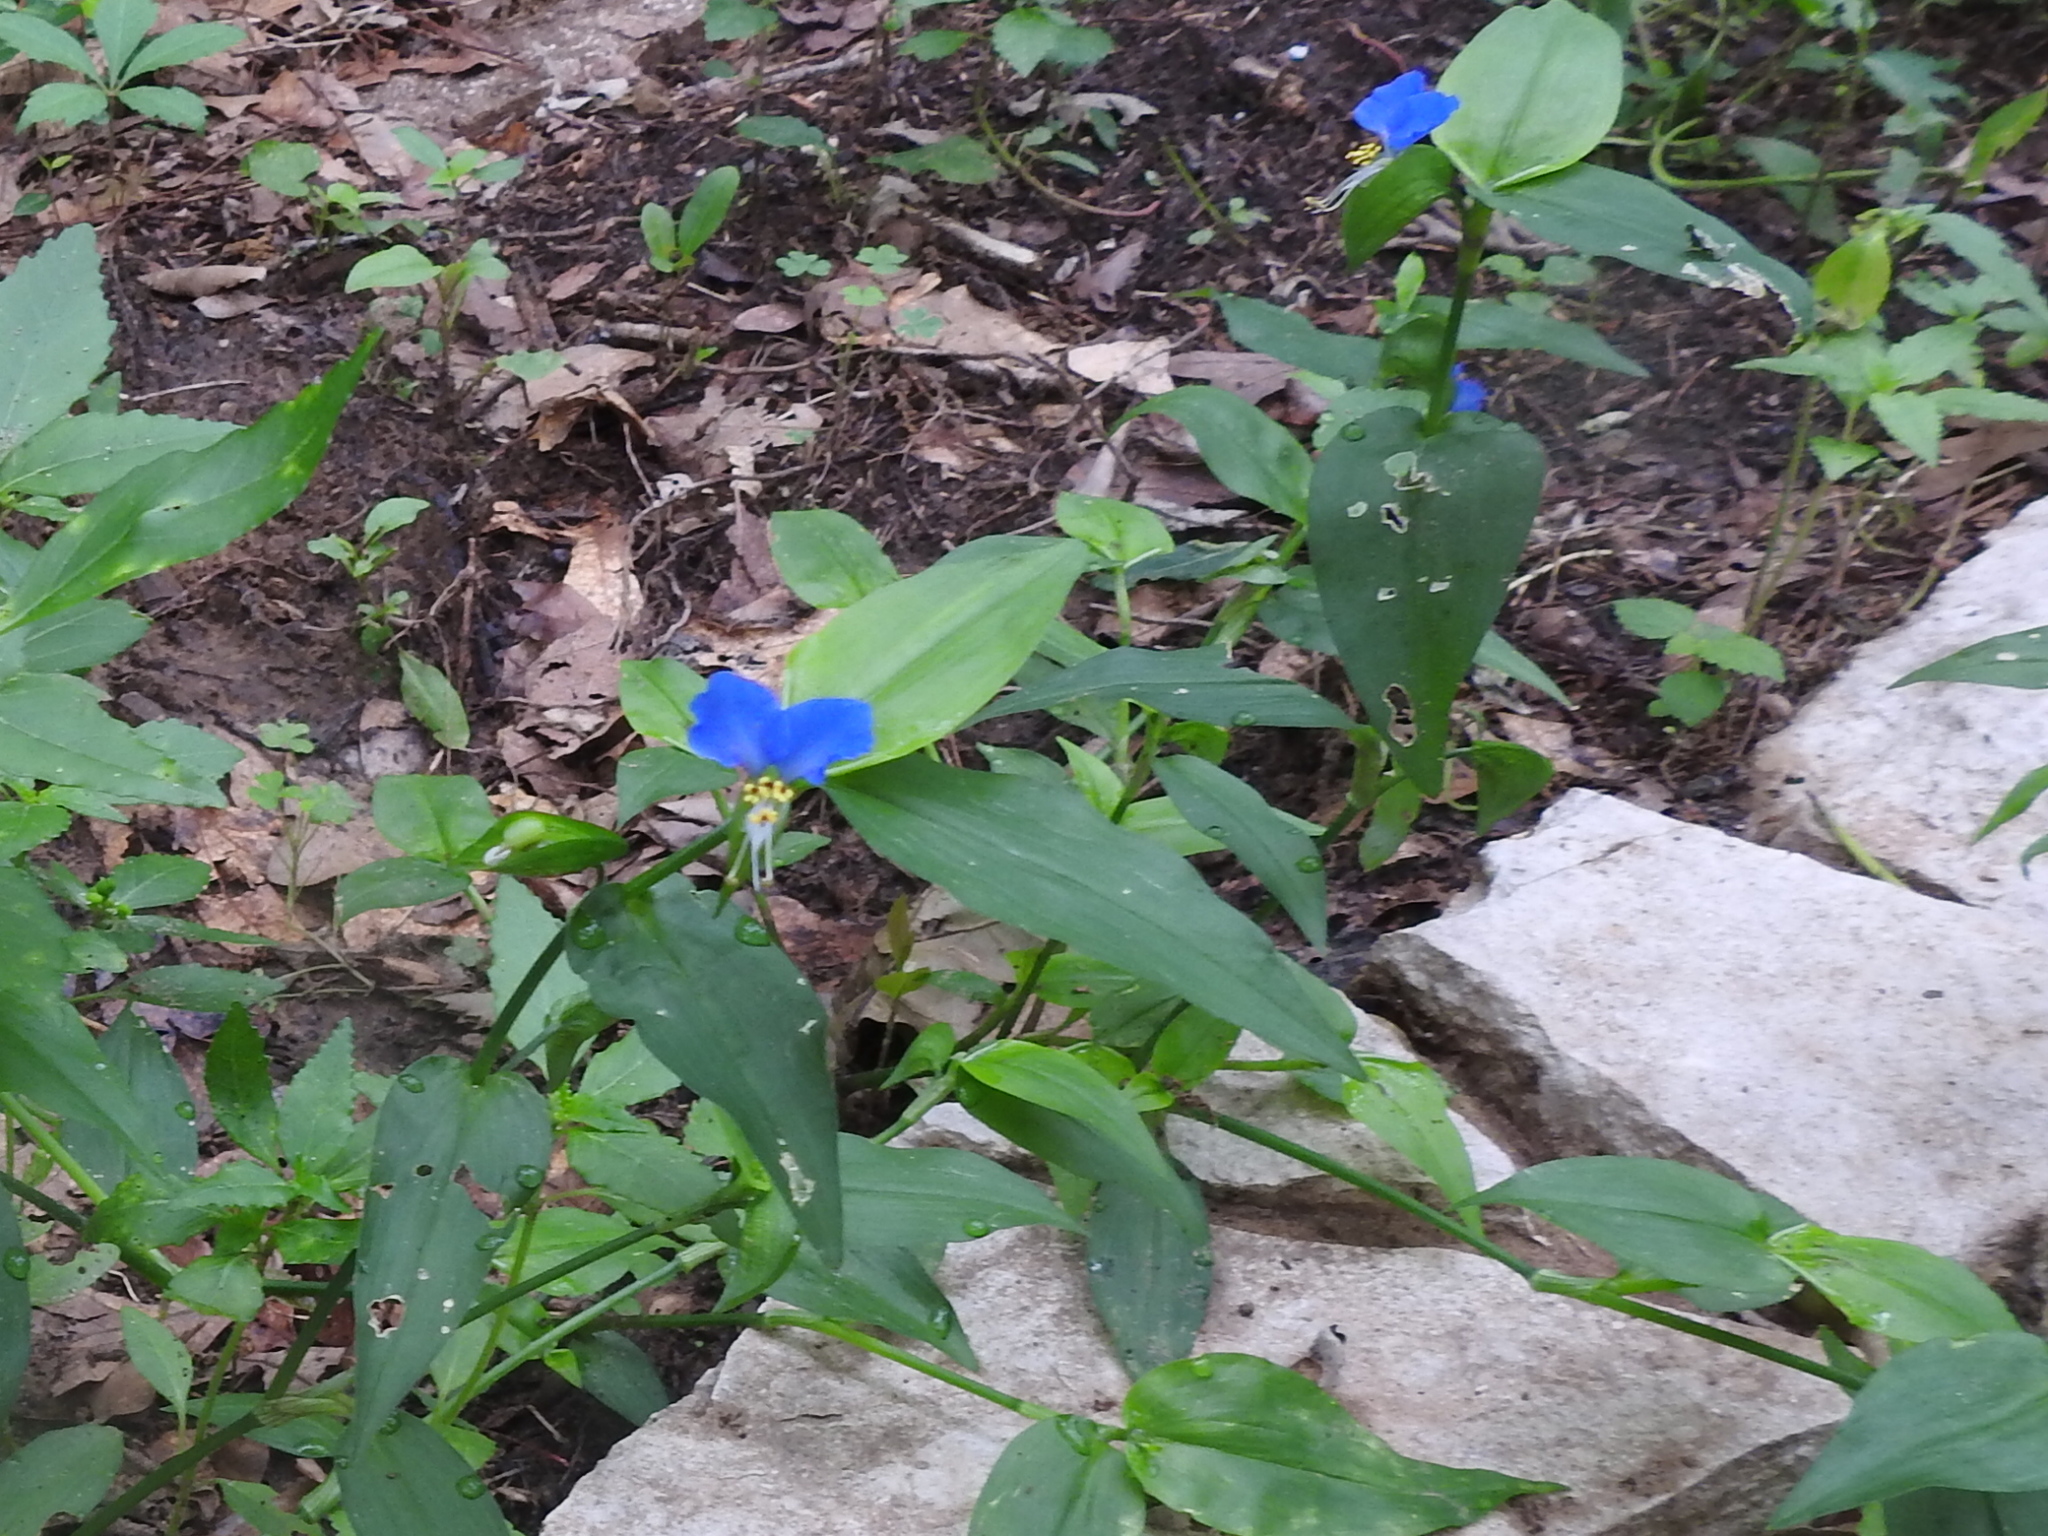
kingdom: Plantae
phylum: Tracheophyta
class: Liliopsida
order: Commelinales
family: Commelinaceae
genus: Commelina
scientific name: Commelina erecta
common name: Blousel blommetjie
